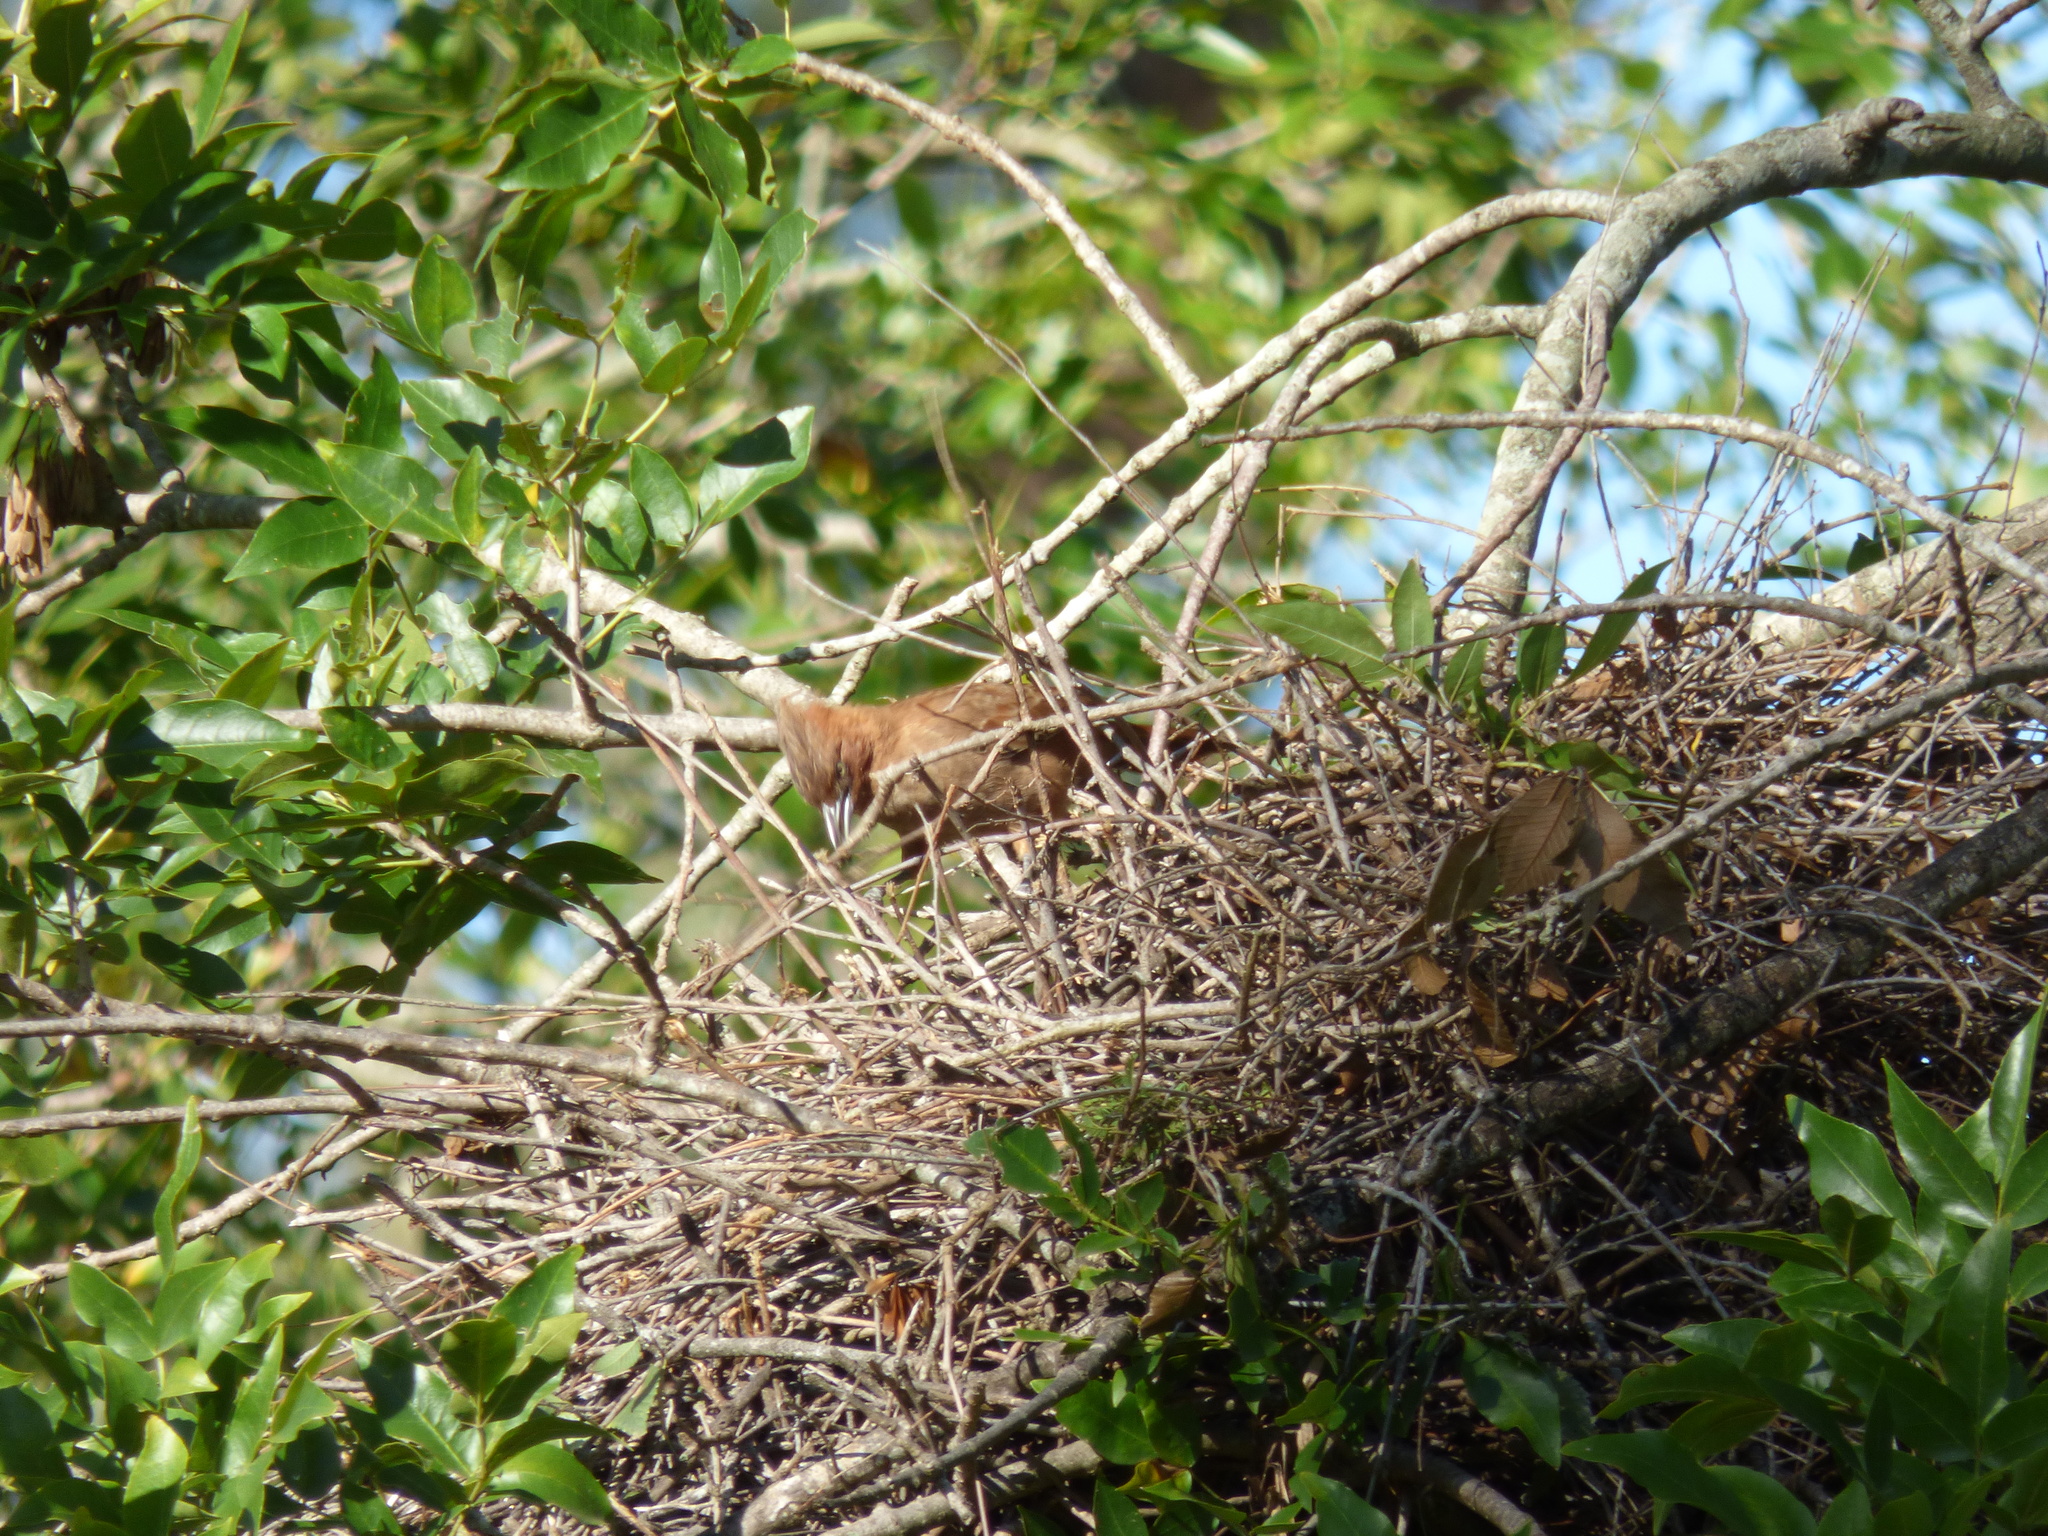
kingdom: Animalia
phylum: Chordata
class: Aves
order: Passeriformes
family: Furnariidae
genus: Pseudoseisura
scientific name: Pseudoseisura lophotes
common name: Brown cacholote
